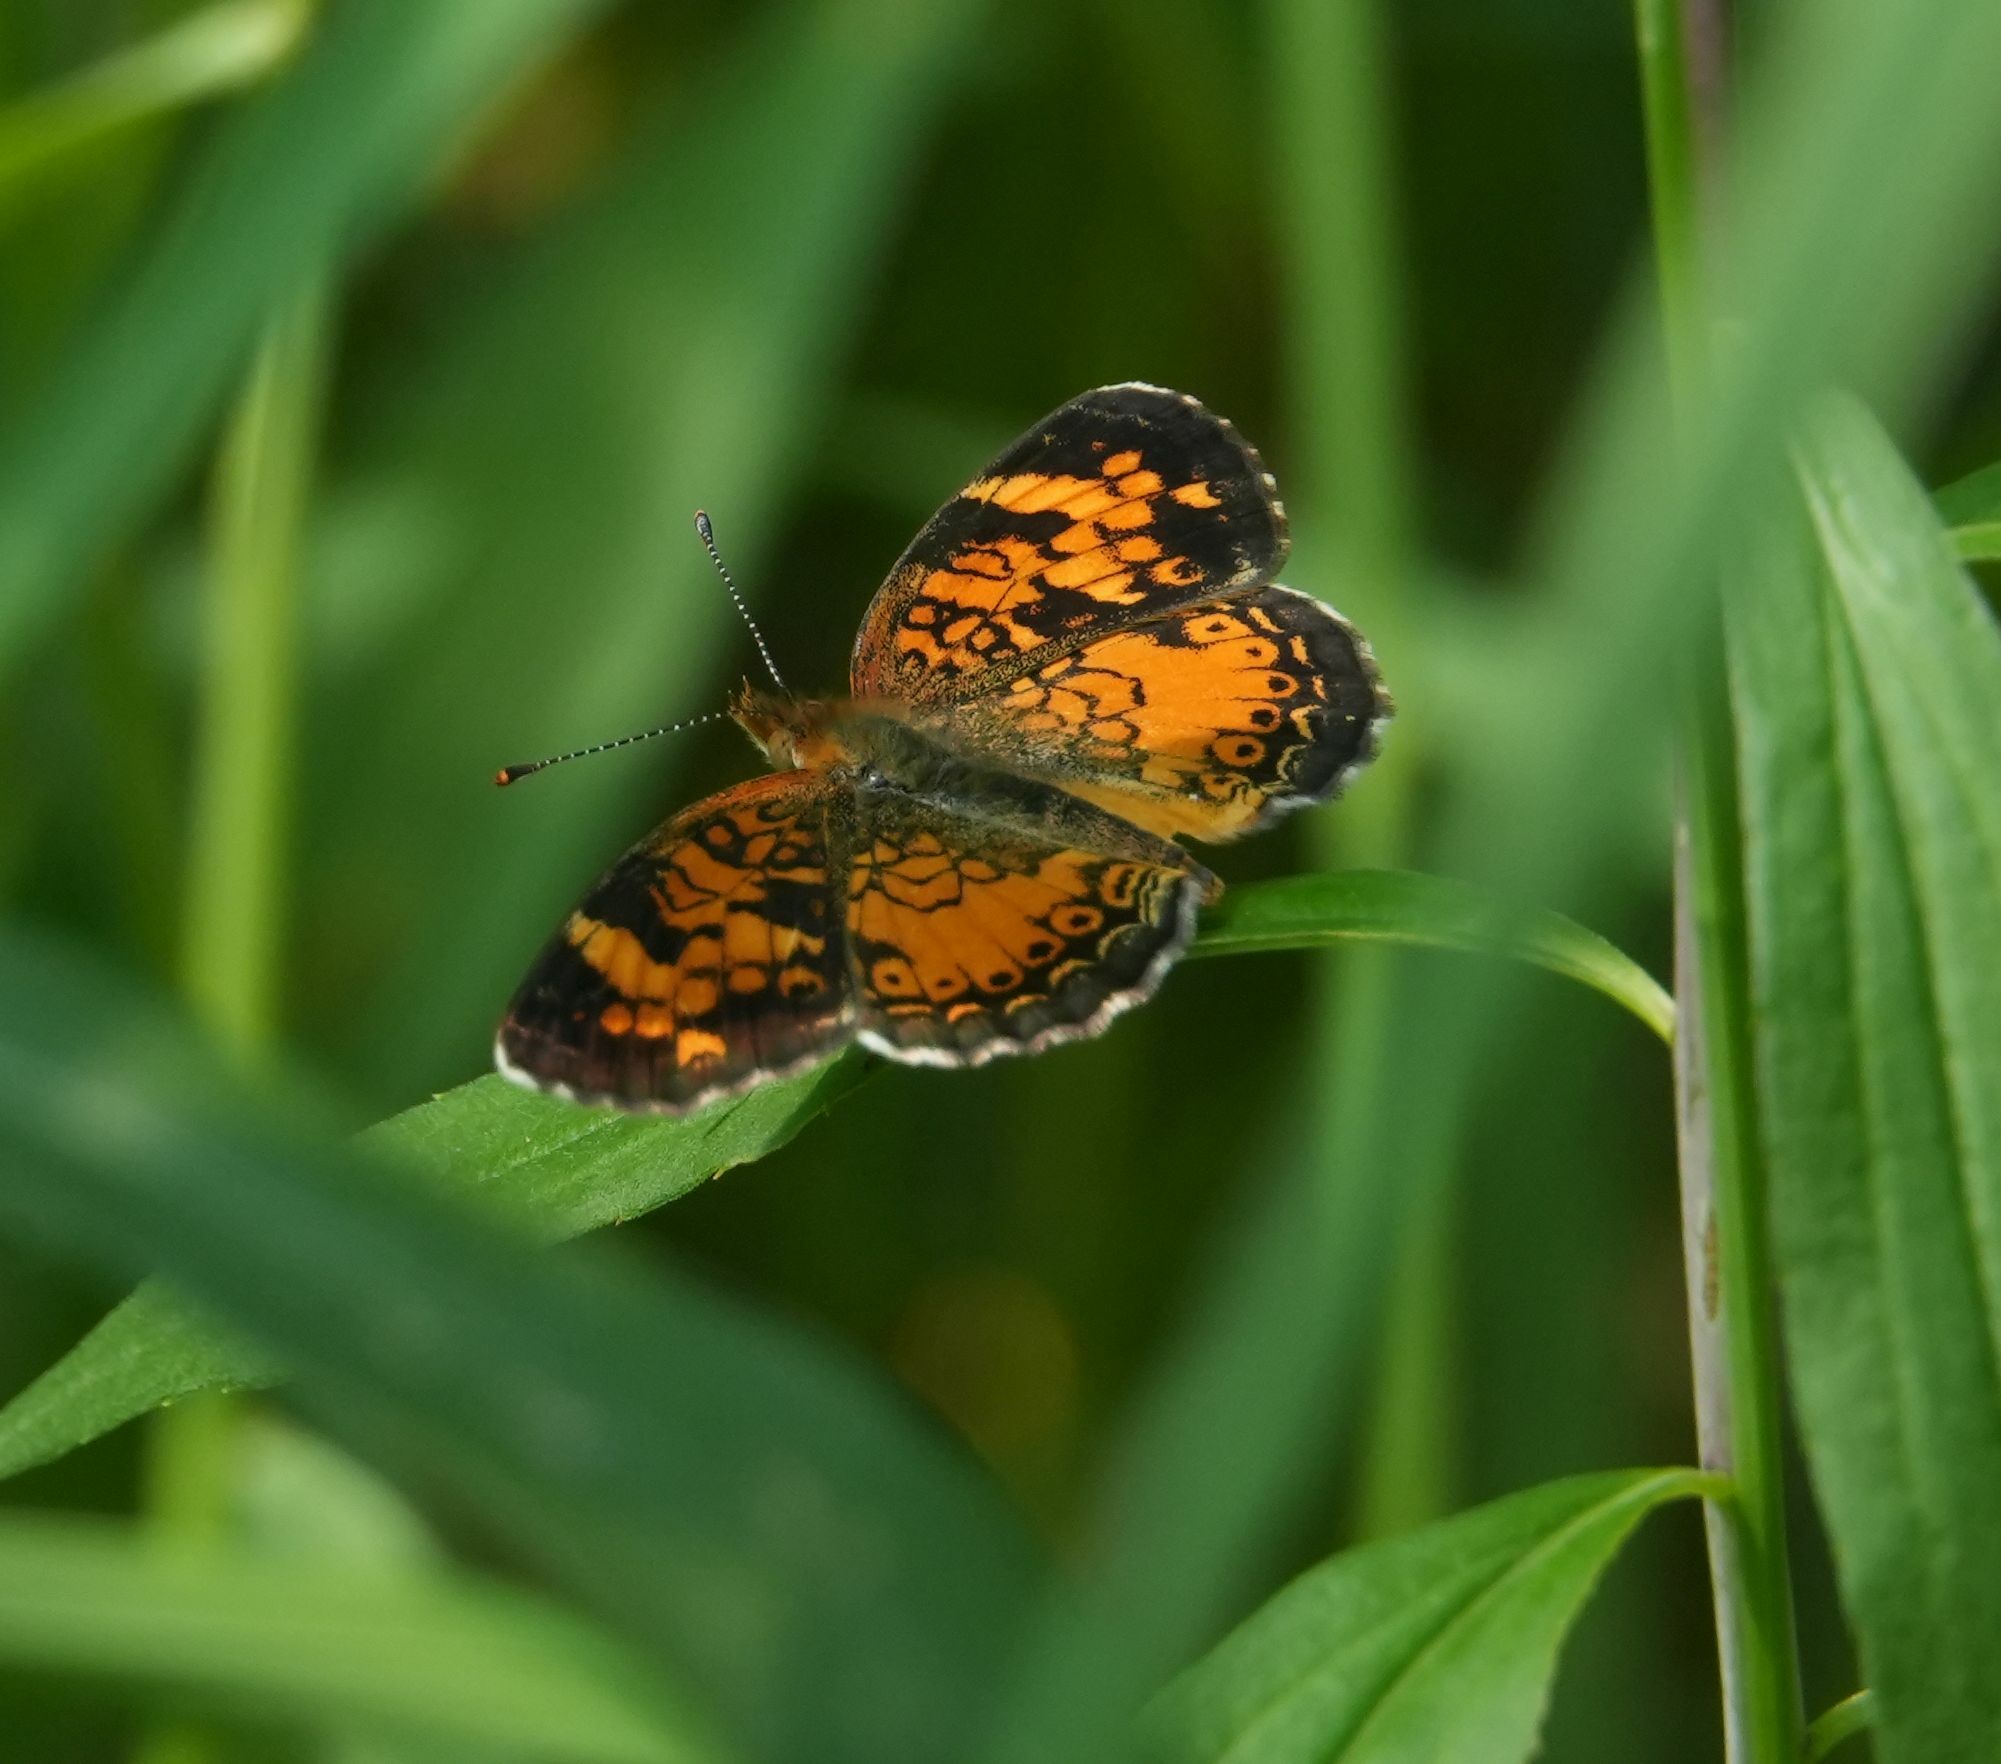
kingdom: Animalia
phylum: Arthropoda
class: Insecta
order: Lepidoptera
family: Nymphalidae
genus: Phyciodes
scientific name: Phyciodes tharos
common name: Pearl crescent
